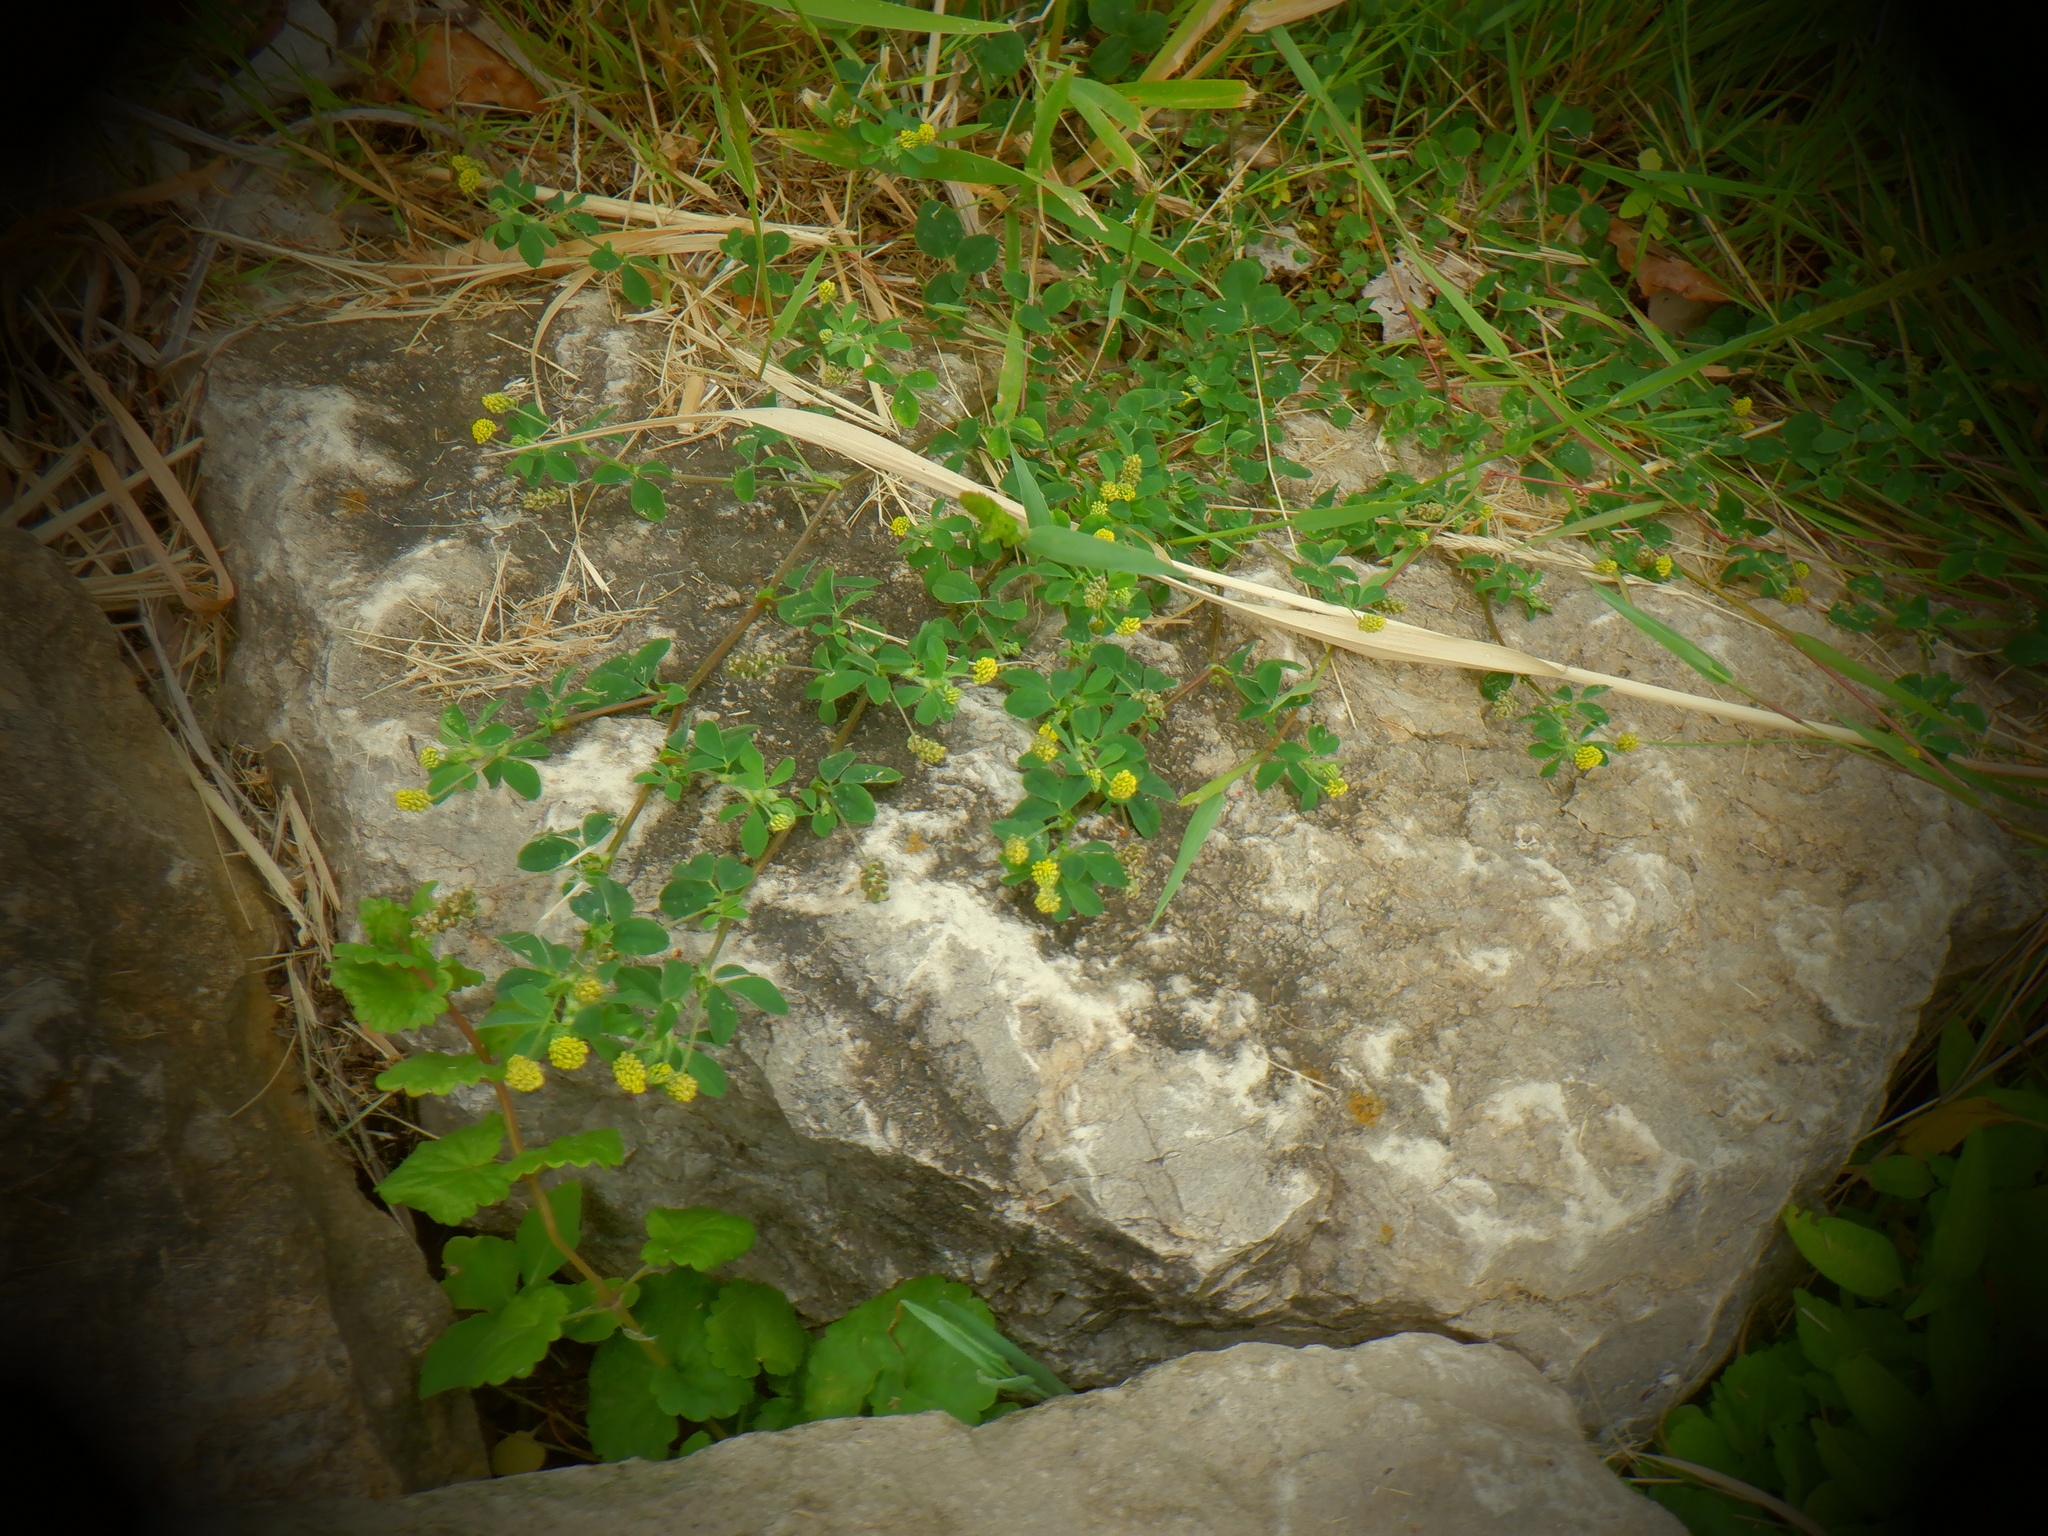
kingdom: Plantae
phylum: Tracheophyta
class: Magnoliopsida
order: Fabales
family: Fabaceae
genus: Medicago
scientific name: Medicago lupulina
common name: Black medick
